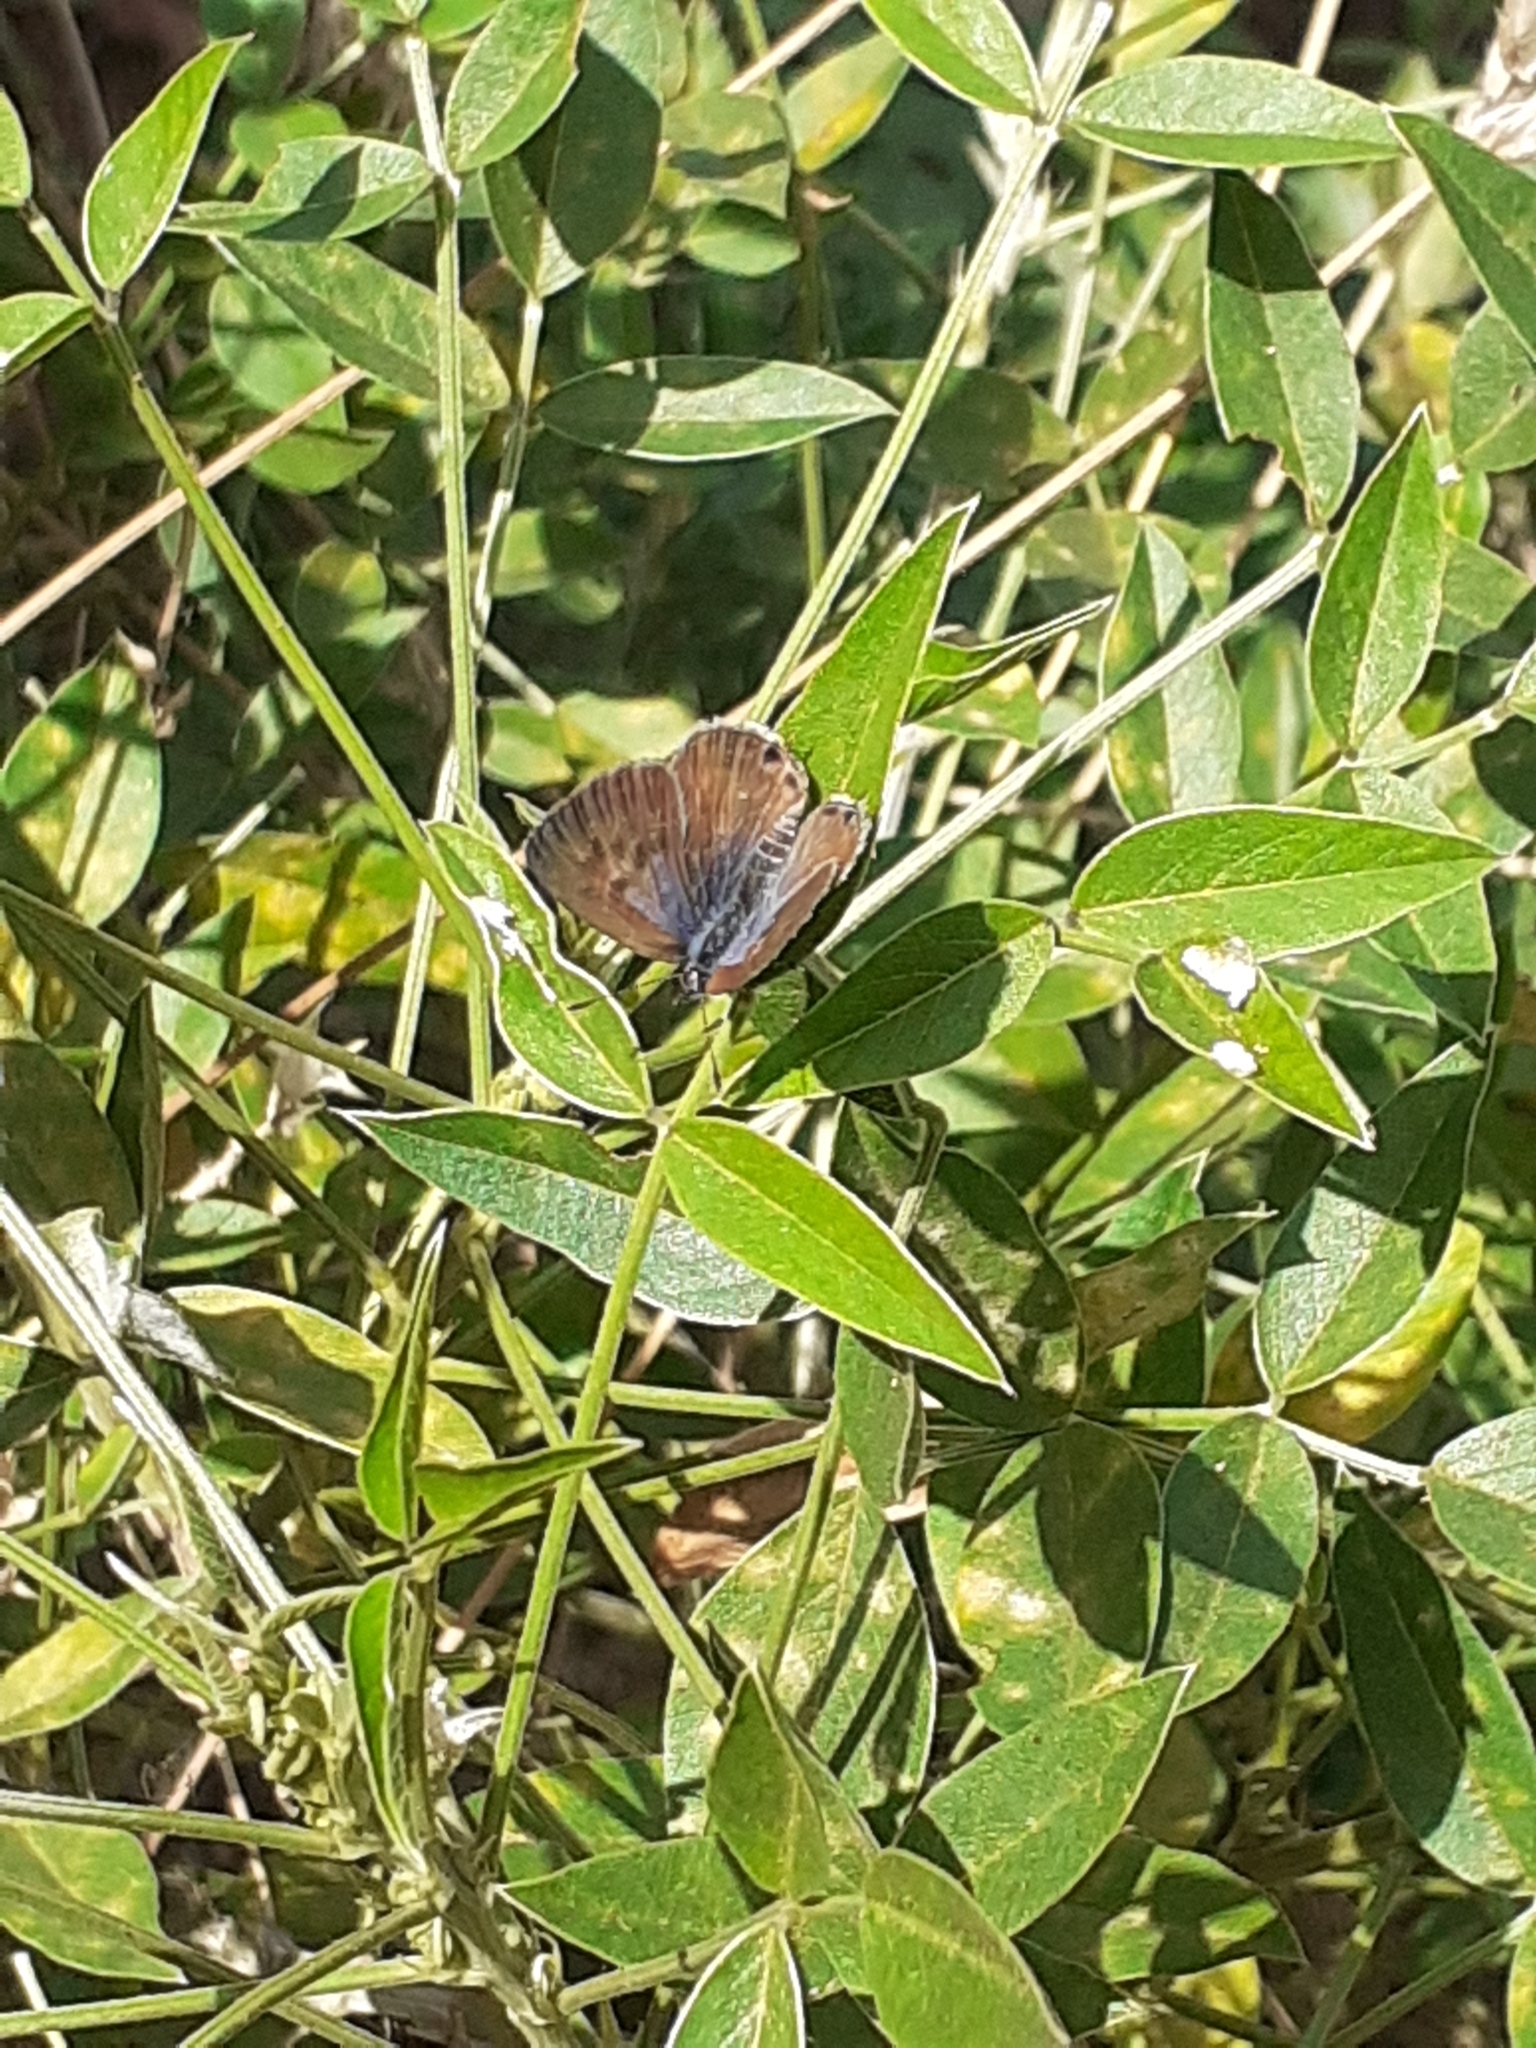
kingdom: Animalia
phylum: Arthropoda
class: Insecta
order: Lepidoptera
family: Lycaenidae
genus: Leptotes
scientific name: Leptotes pirithous
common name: Lang's short-tailed blue
